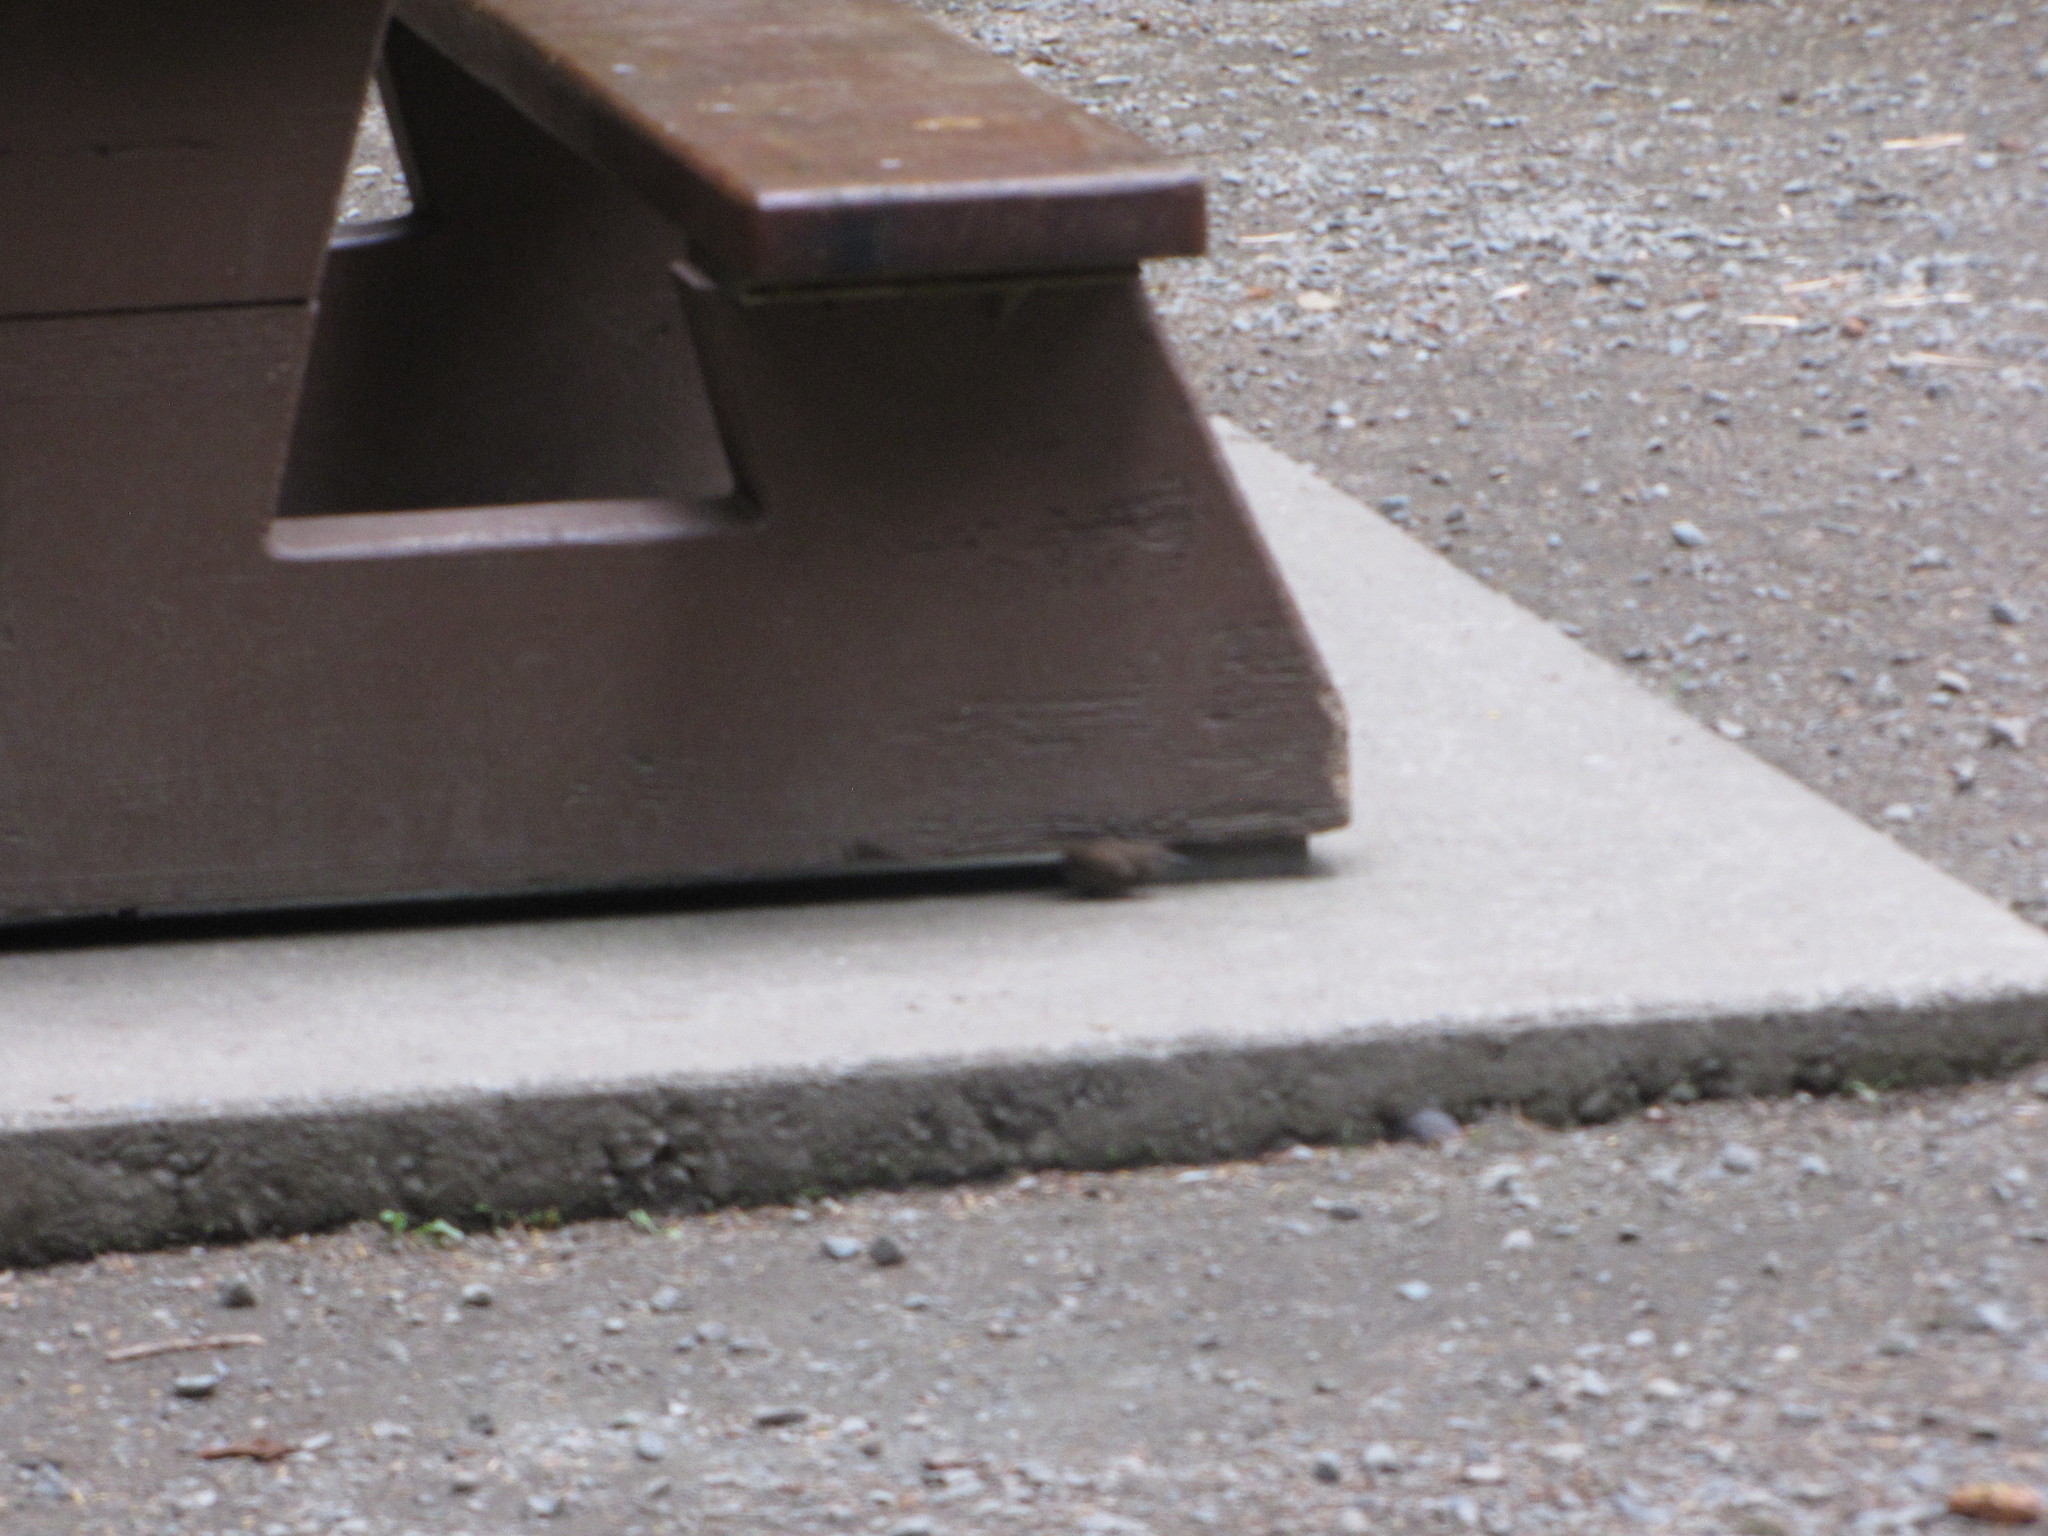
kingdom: Animalia
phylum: Chordata
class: Aves
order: Passeriformes
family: Troglodytidae
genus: Troglodytes
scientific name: Troglodytes pacificus
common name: Pacific wren
